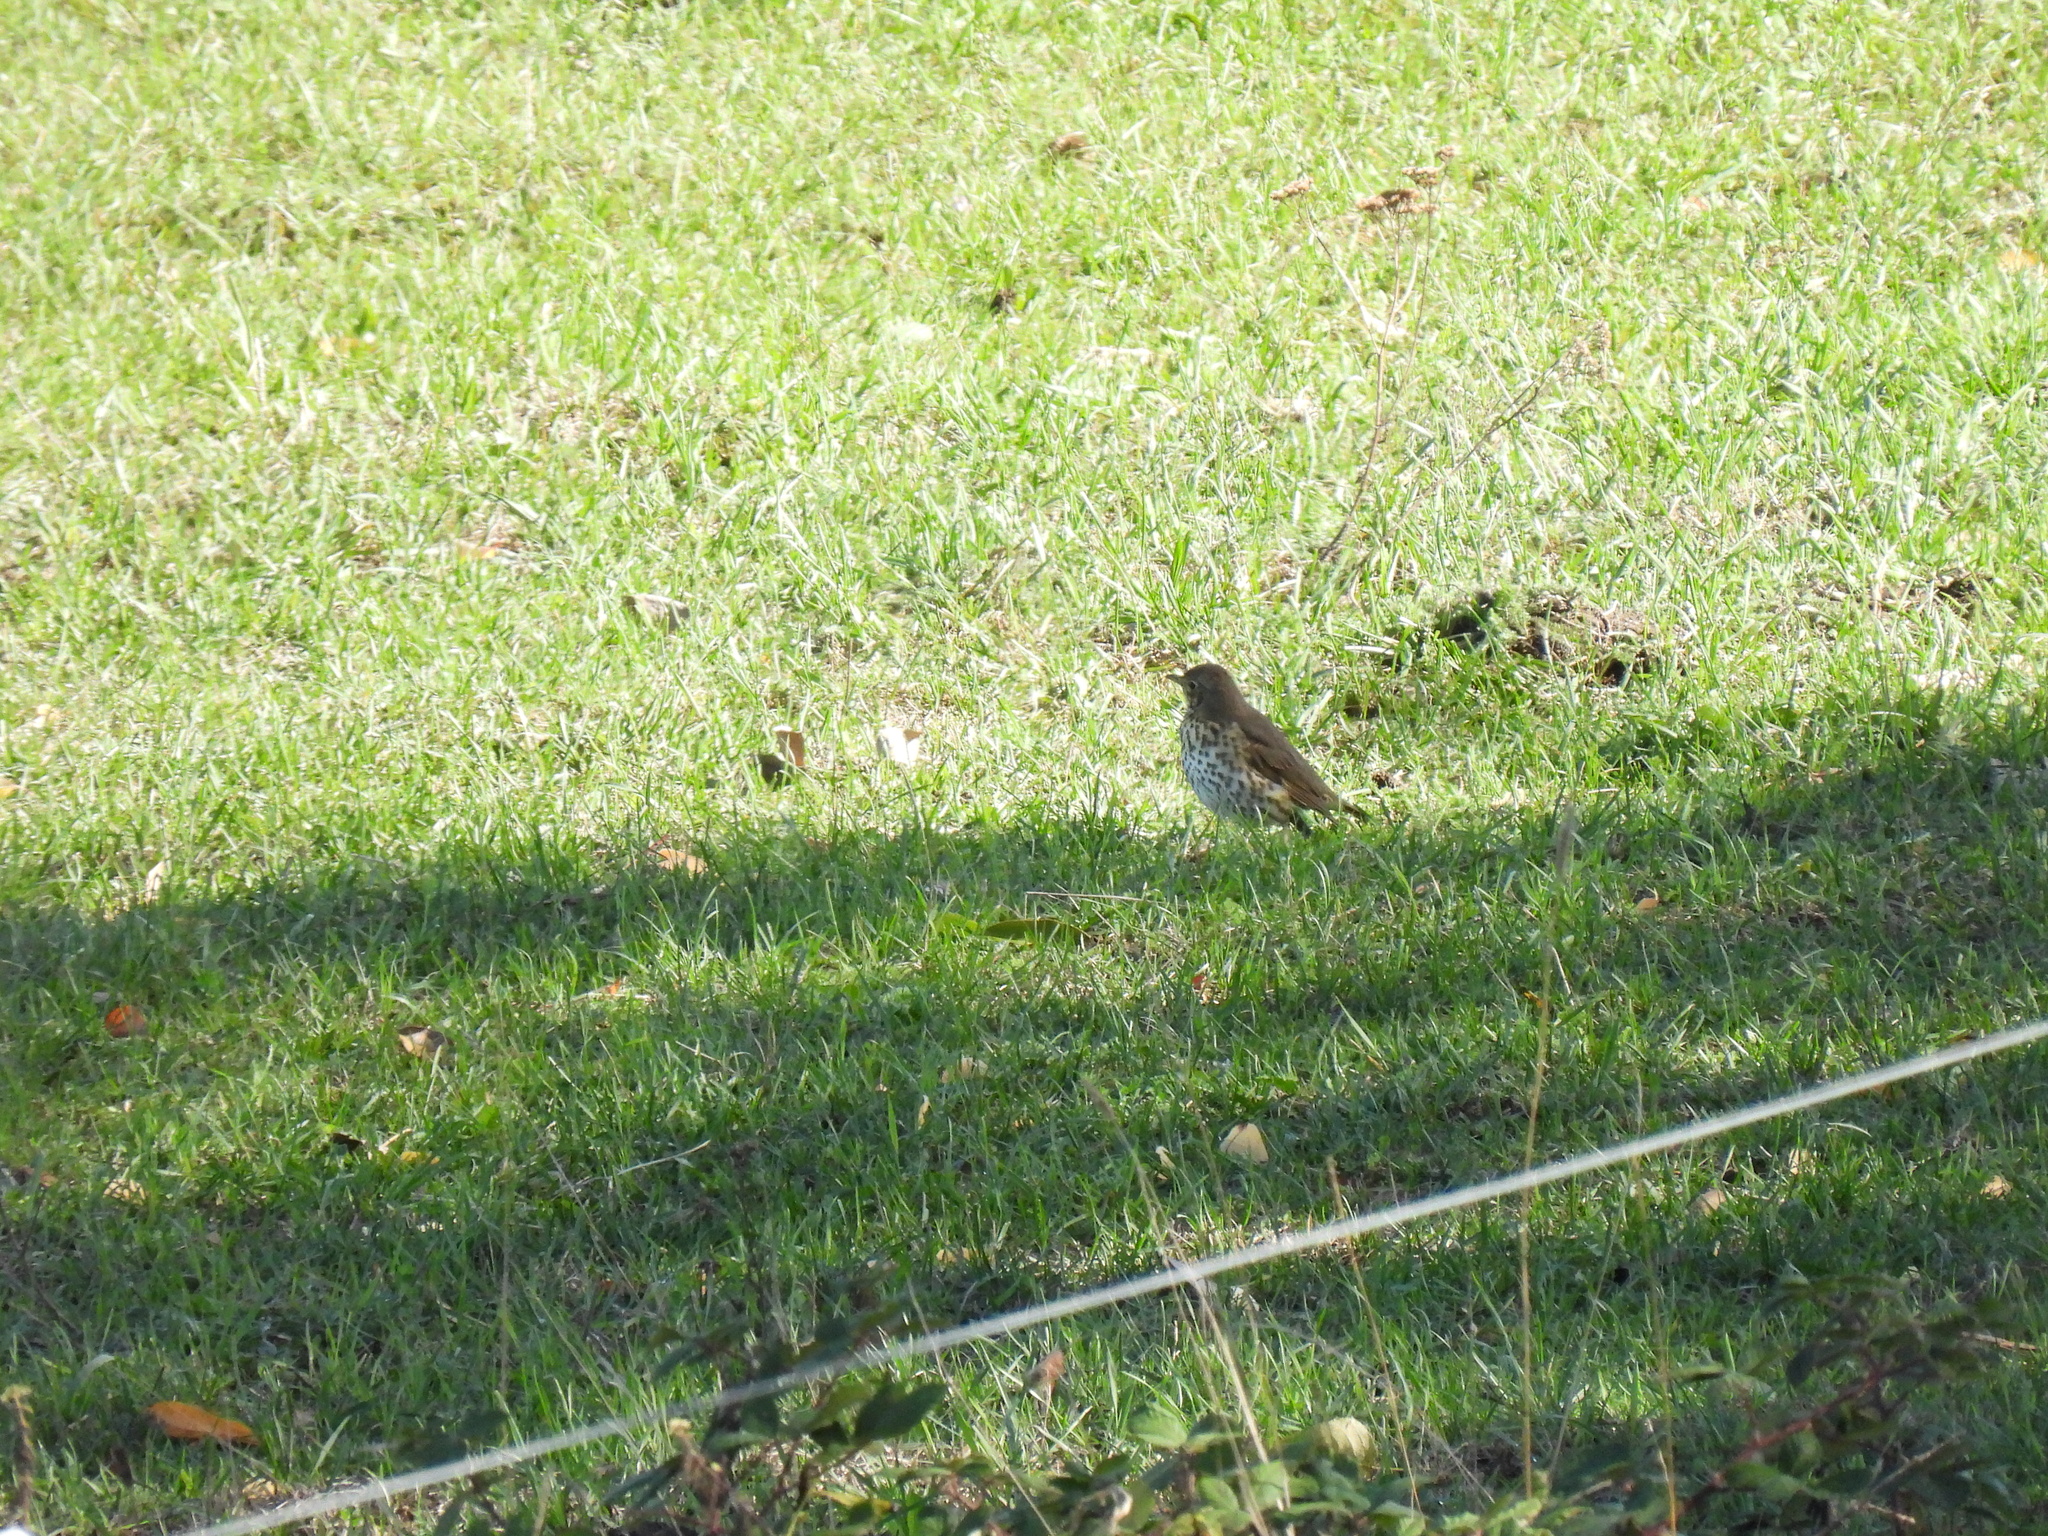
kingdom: Animalia
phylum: Chordata
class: Aves
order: Passeriformes
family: Turdidae
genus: Turdus
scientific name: Turdus philomelos
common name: Song thrush
